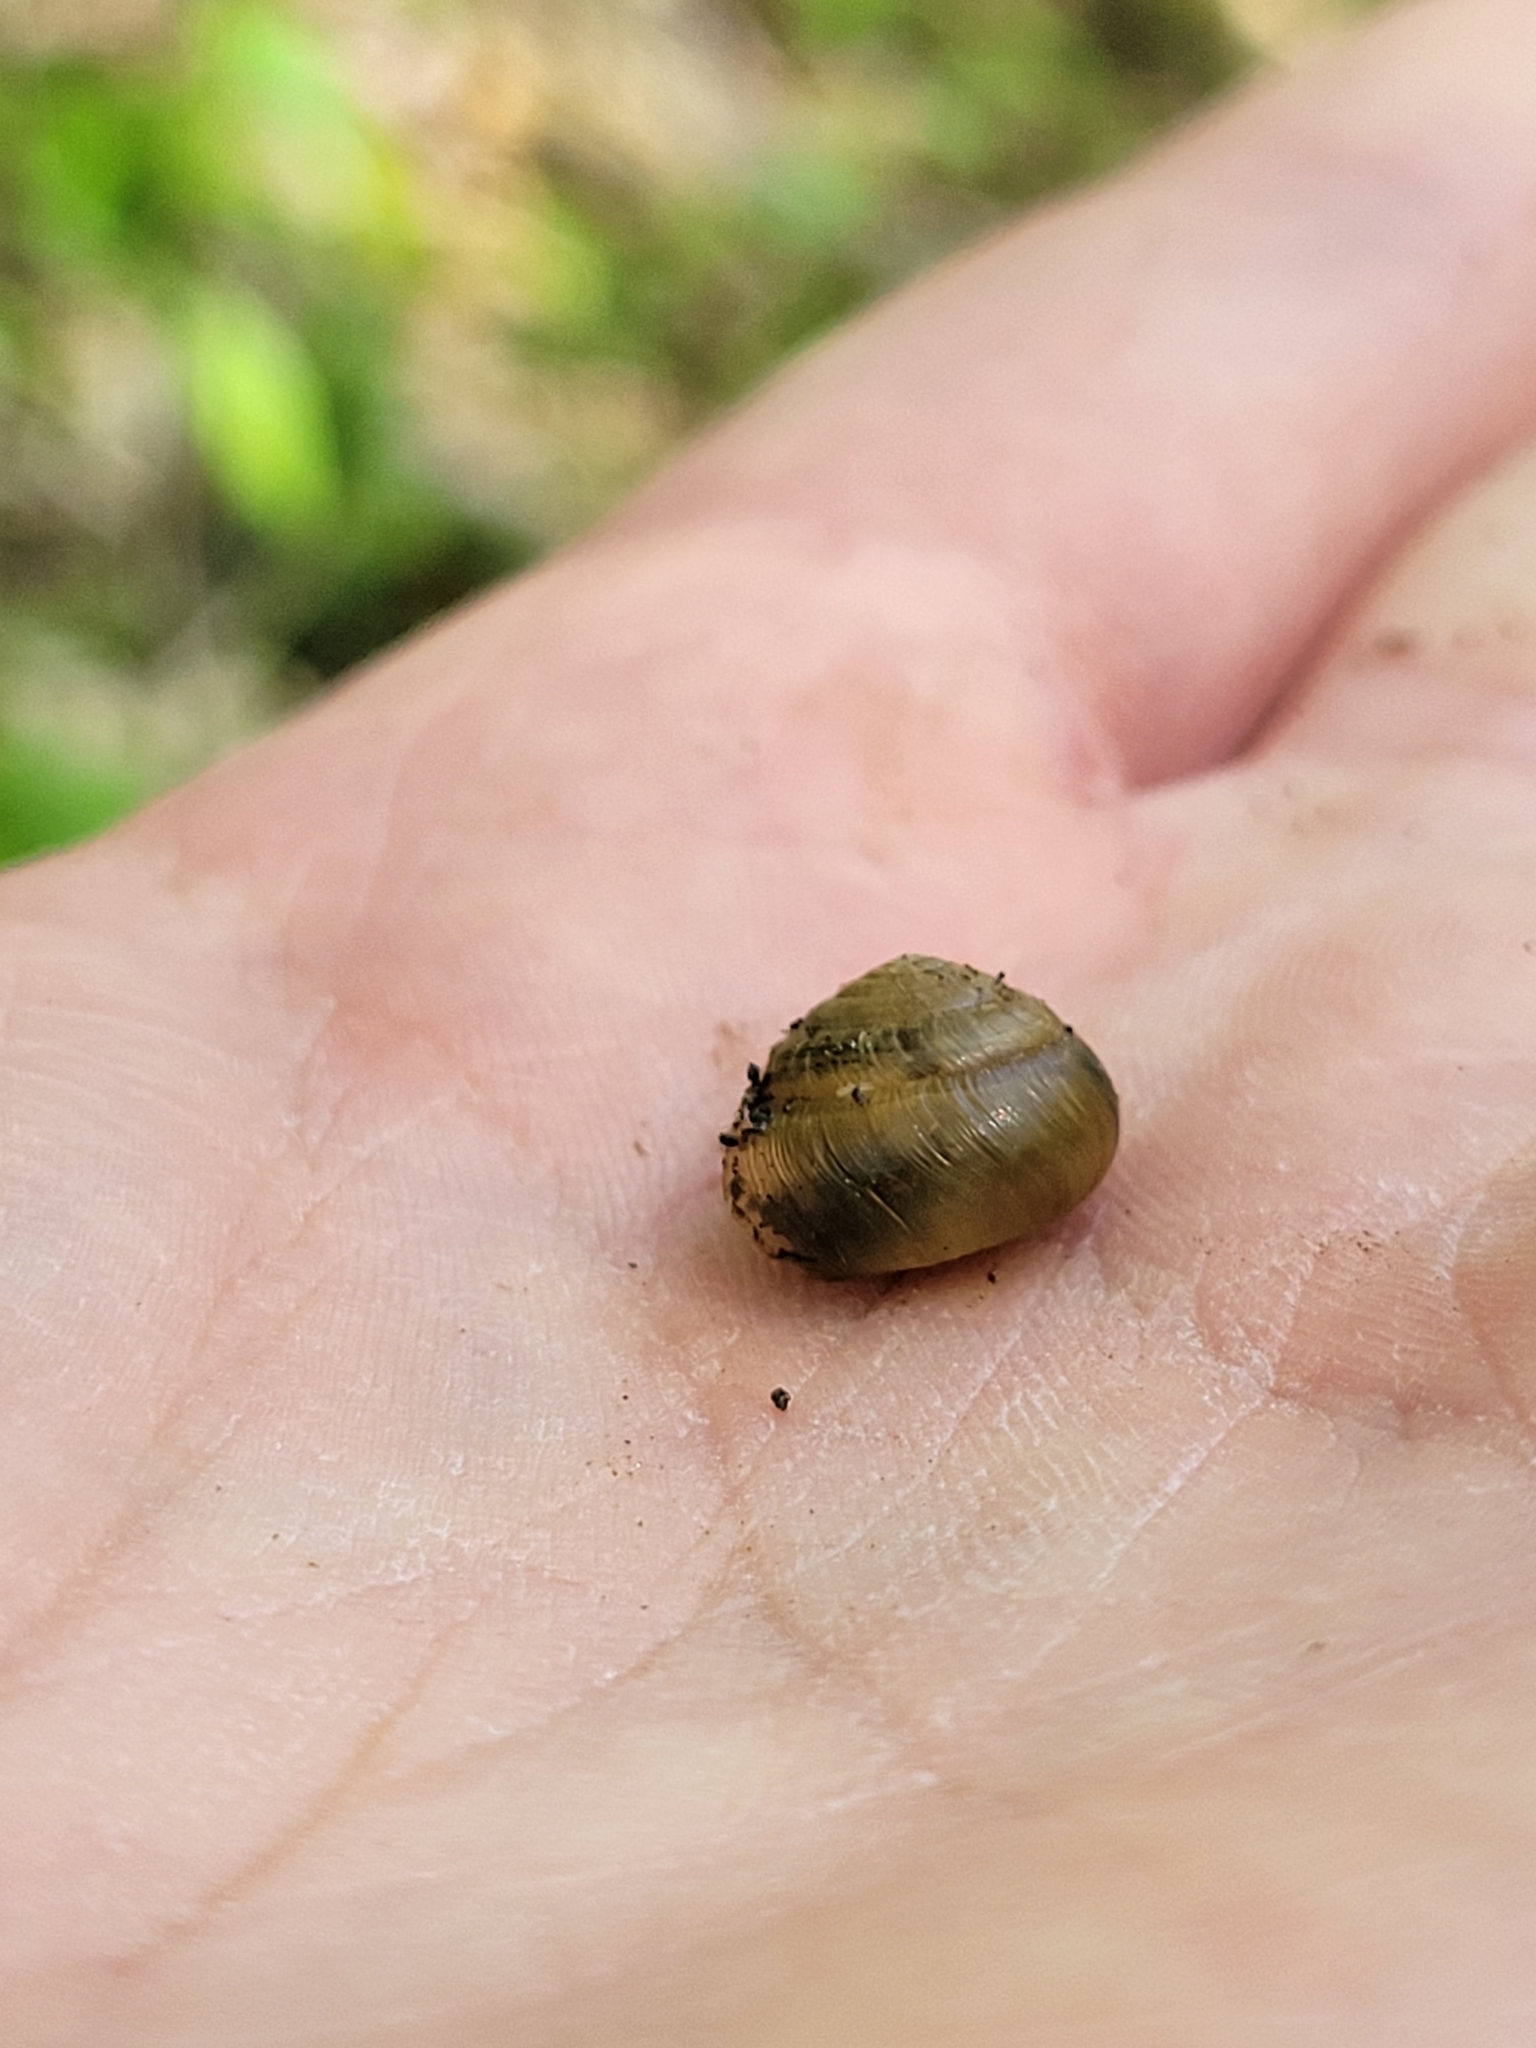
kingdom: Animalia
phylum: Mollusca
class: Gastropoda
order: Stylommatophora
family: Gastrodontidae
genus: Ventridens
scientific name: Ventridens ligera
